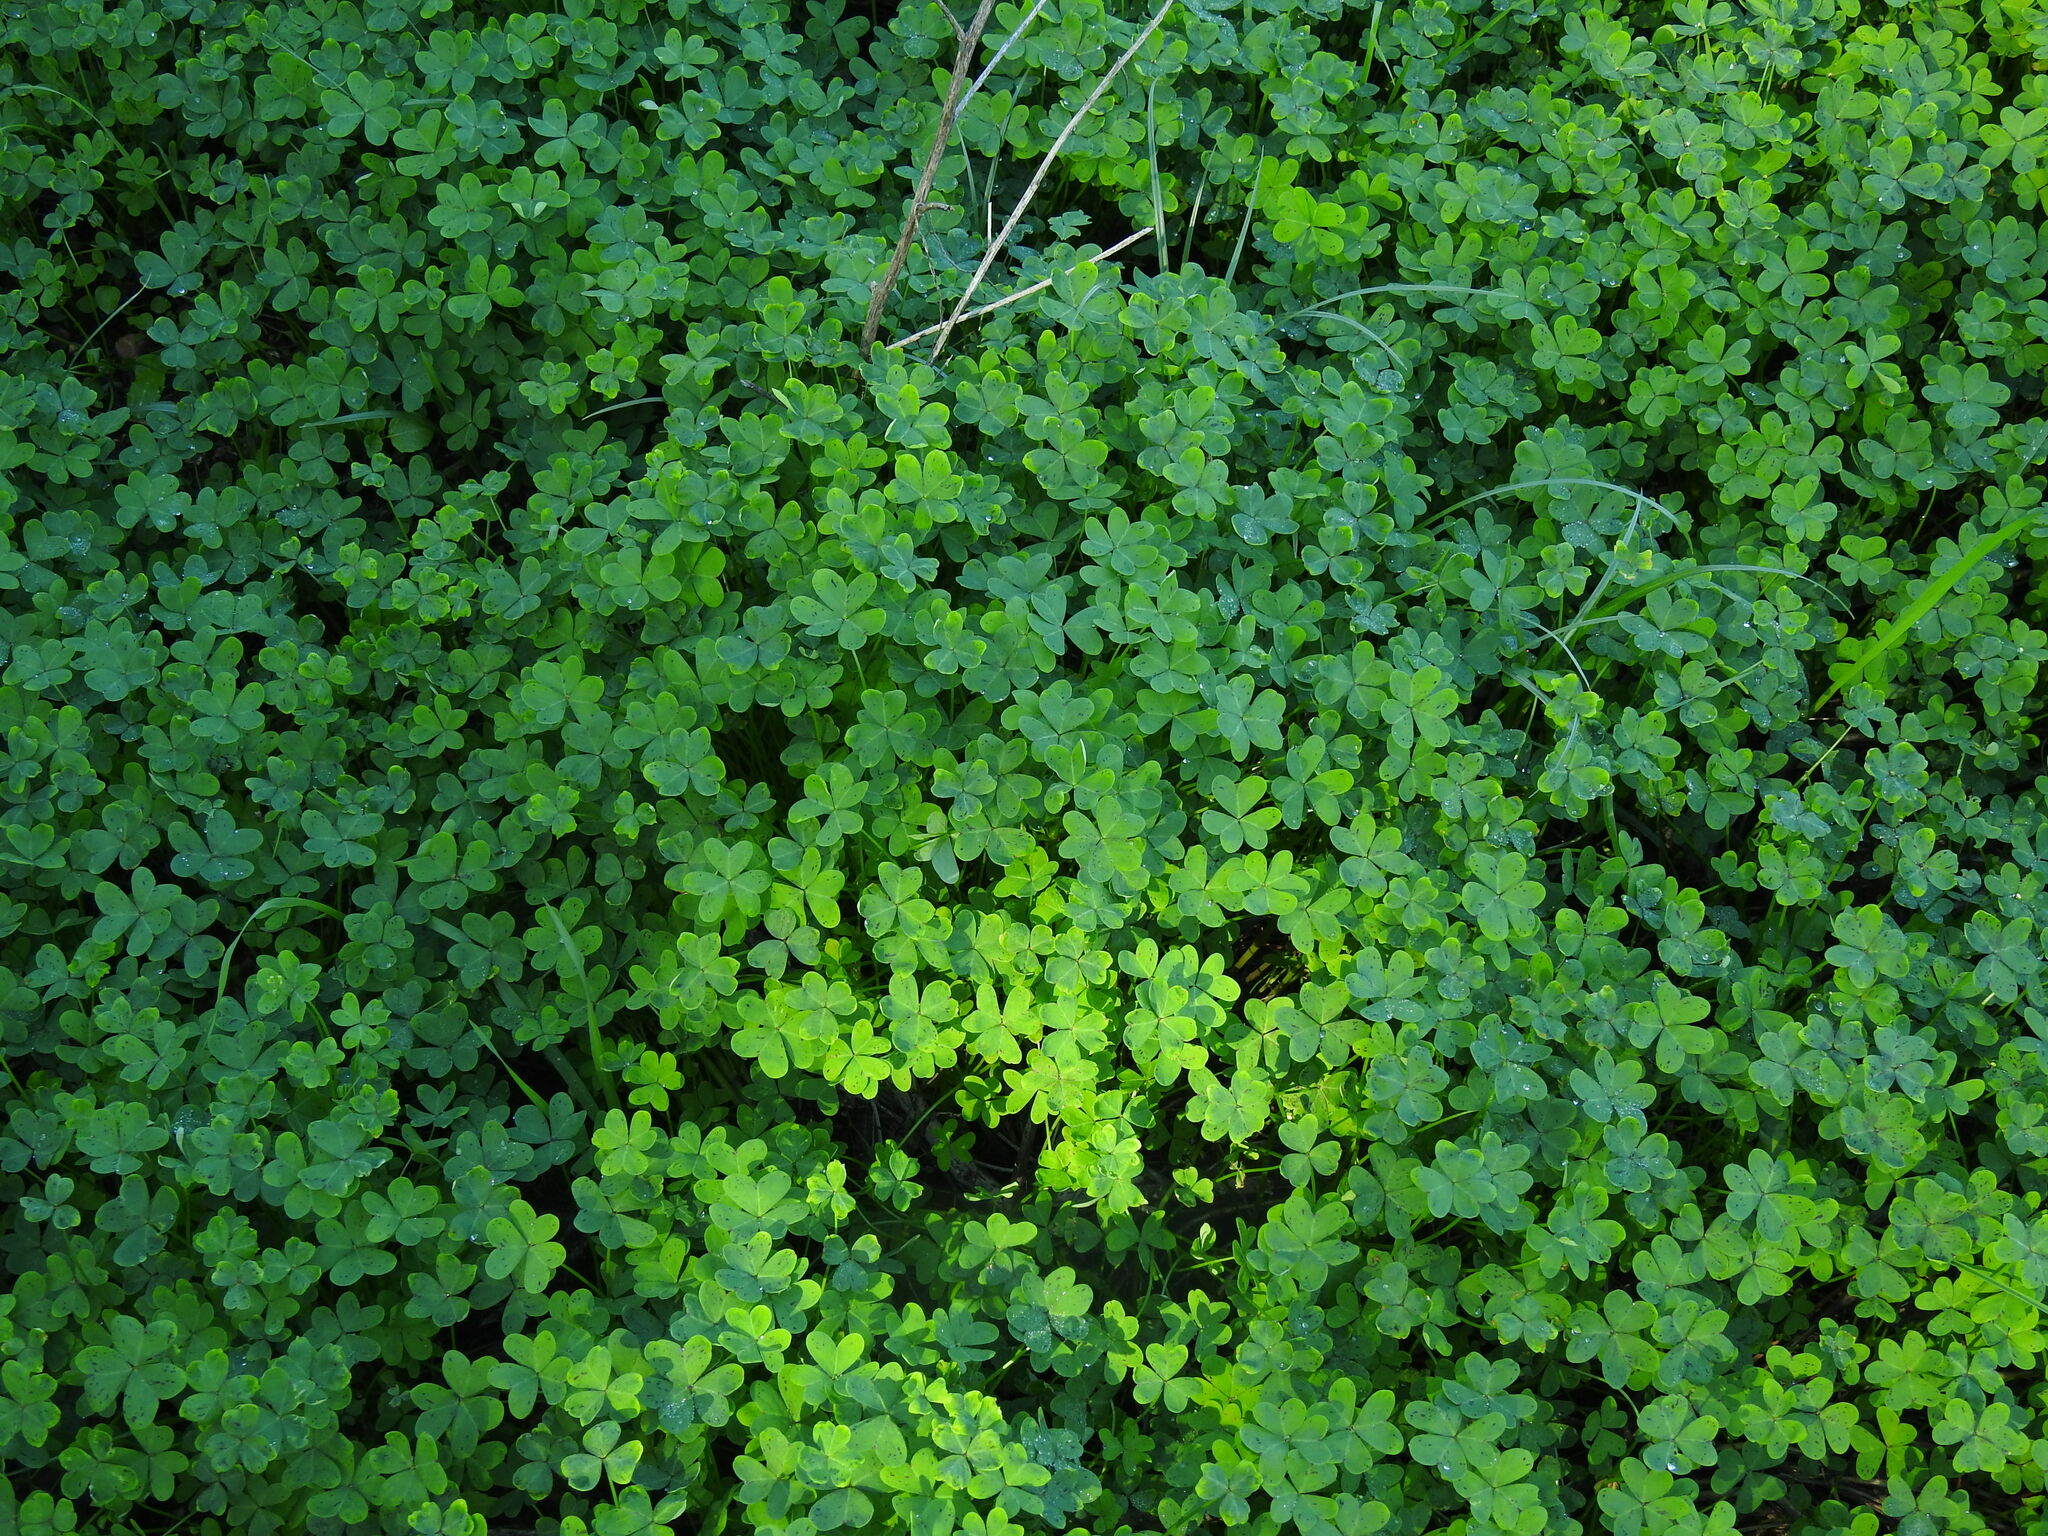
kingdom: Plantae
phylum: Tracheophyta
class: Magnoliopsida
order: Oxalidales
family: Oxalidaceae
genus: Oxalis
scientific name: Oxalis pes-caprae
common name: Bermuda-buttercup
